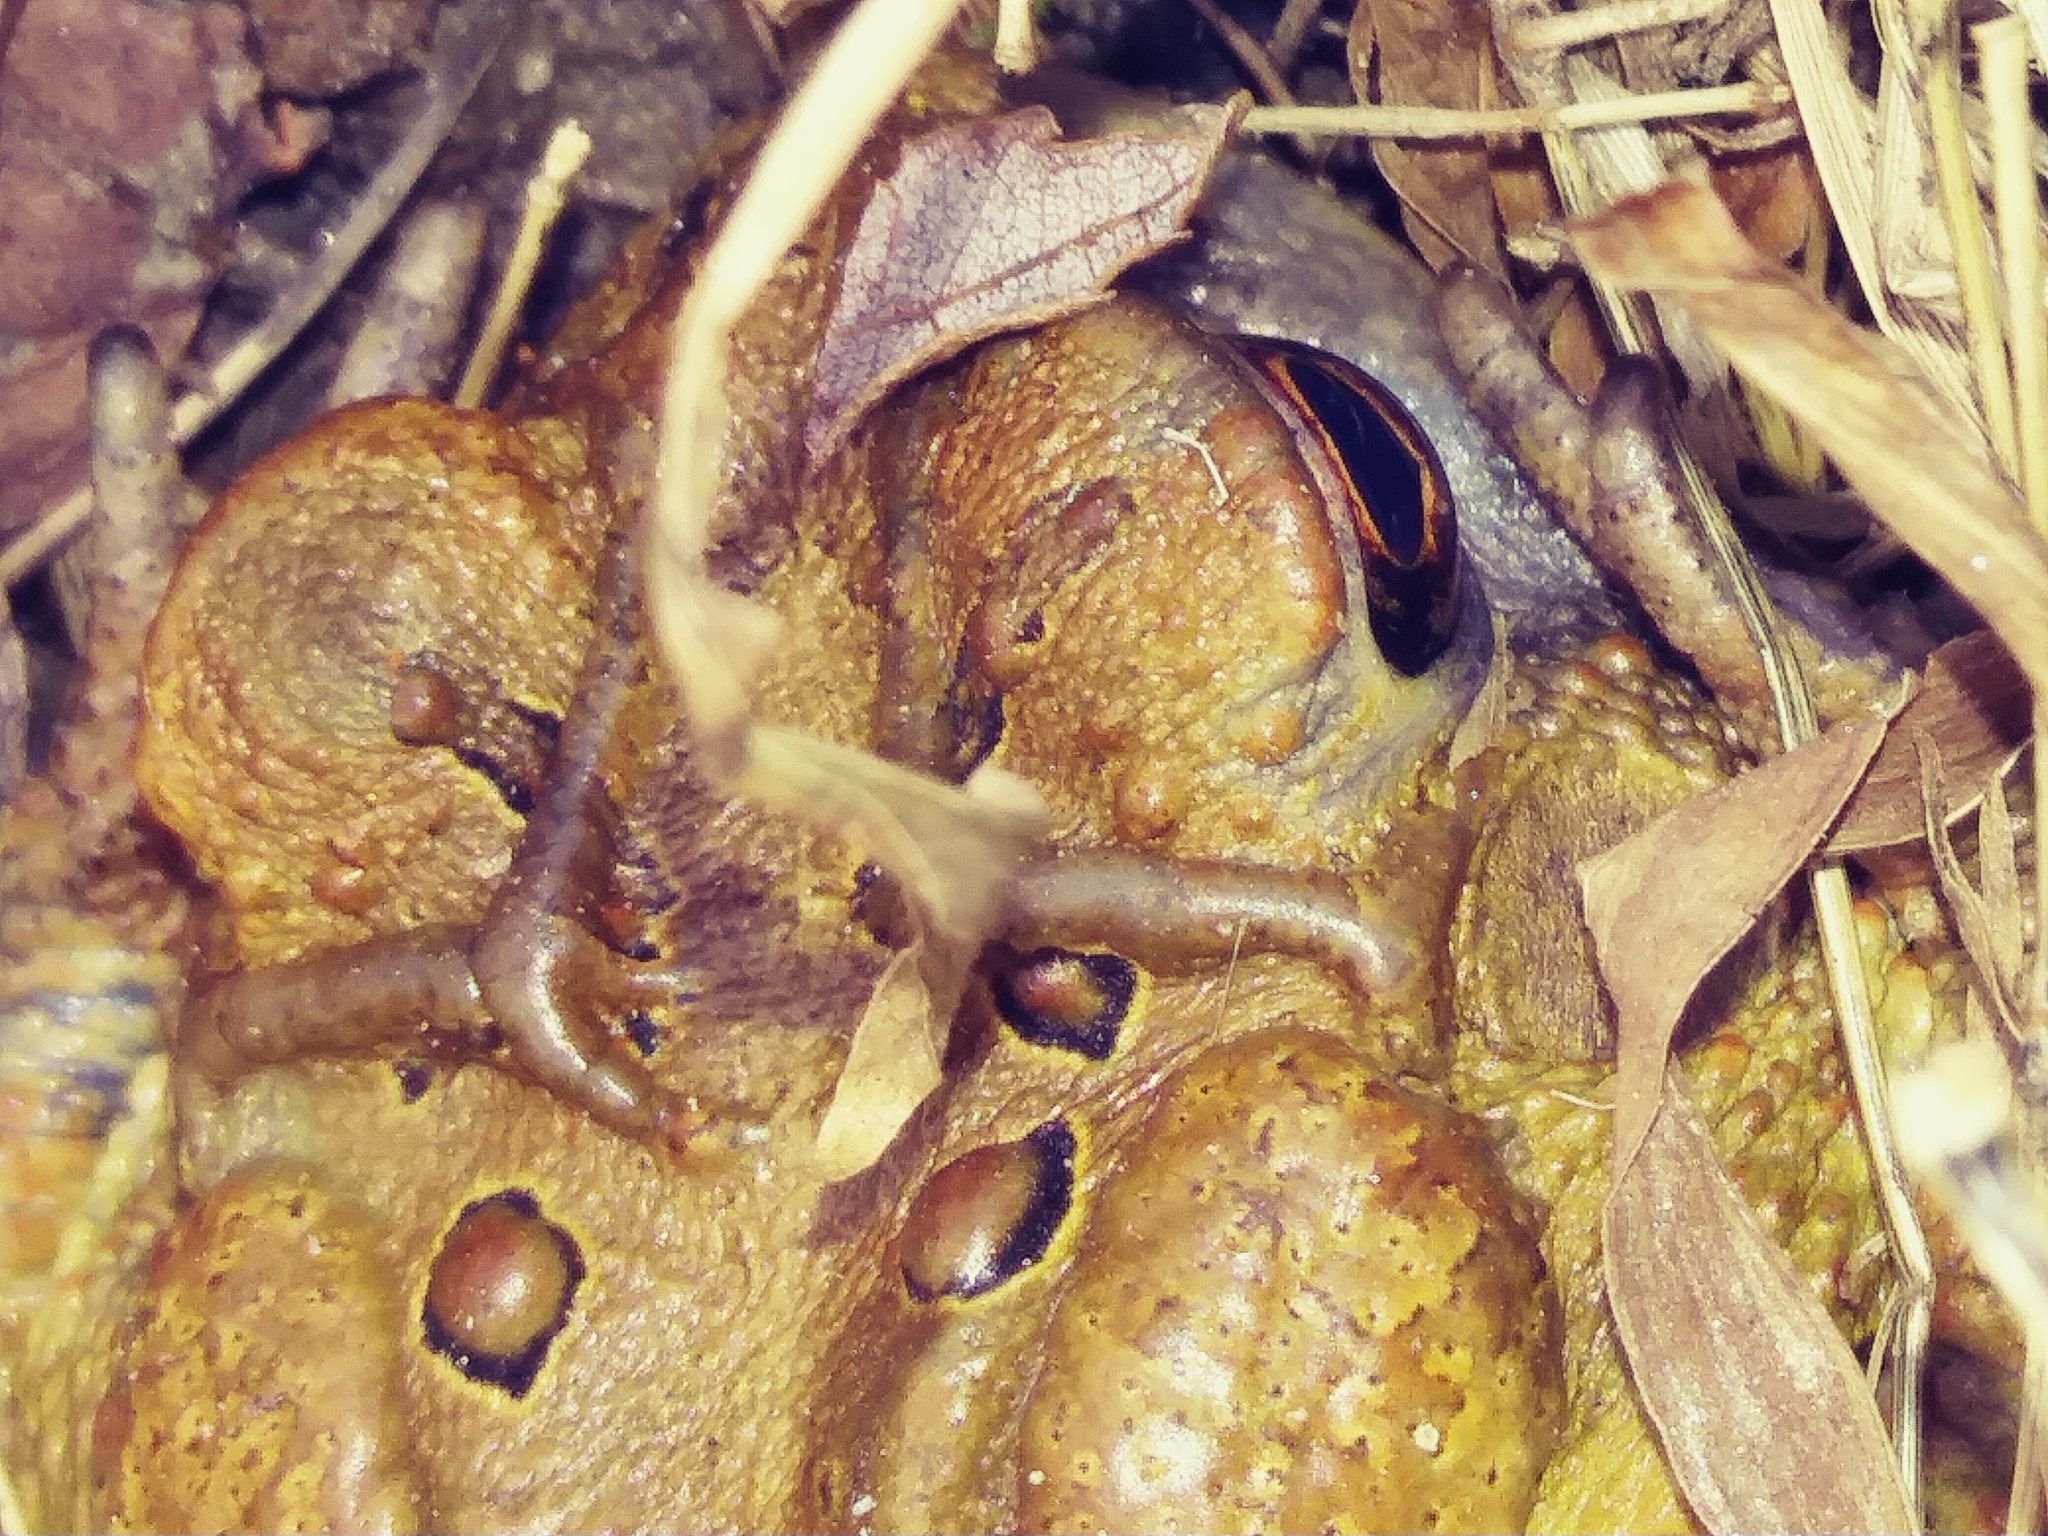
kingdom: Animalia
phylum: Chordata
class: Amphibia
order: Anura
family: Bufonidae
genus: Anaxyrus
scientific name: Anaxyrus americanus
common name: American toad
